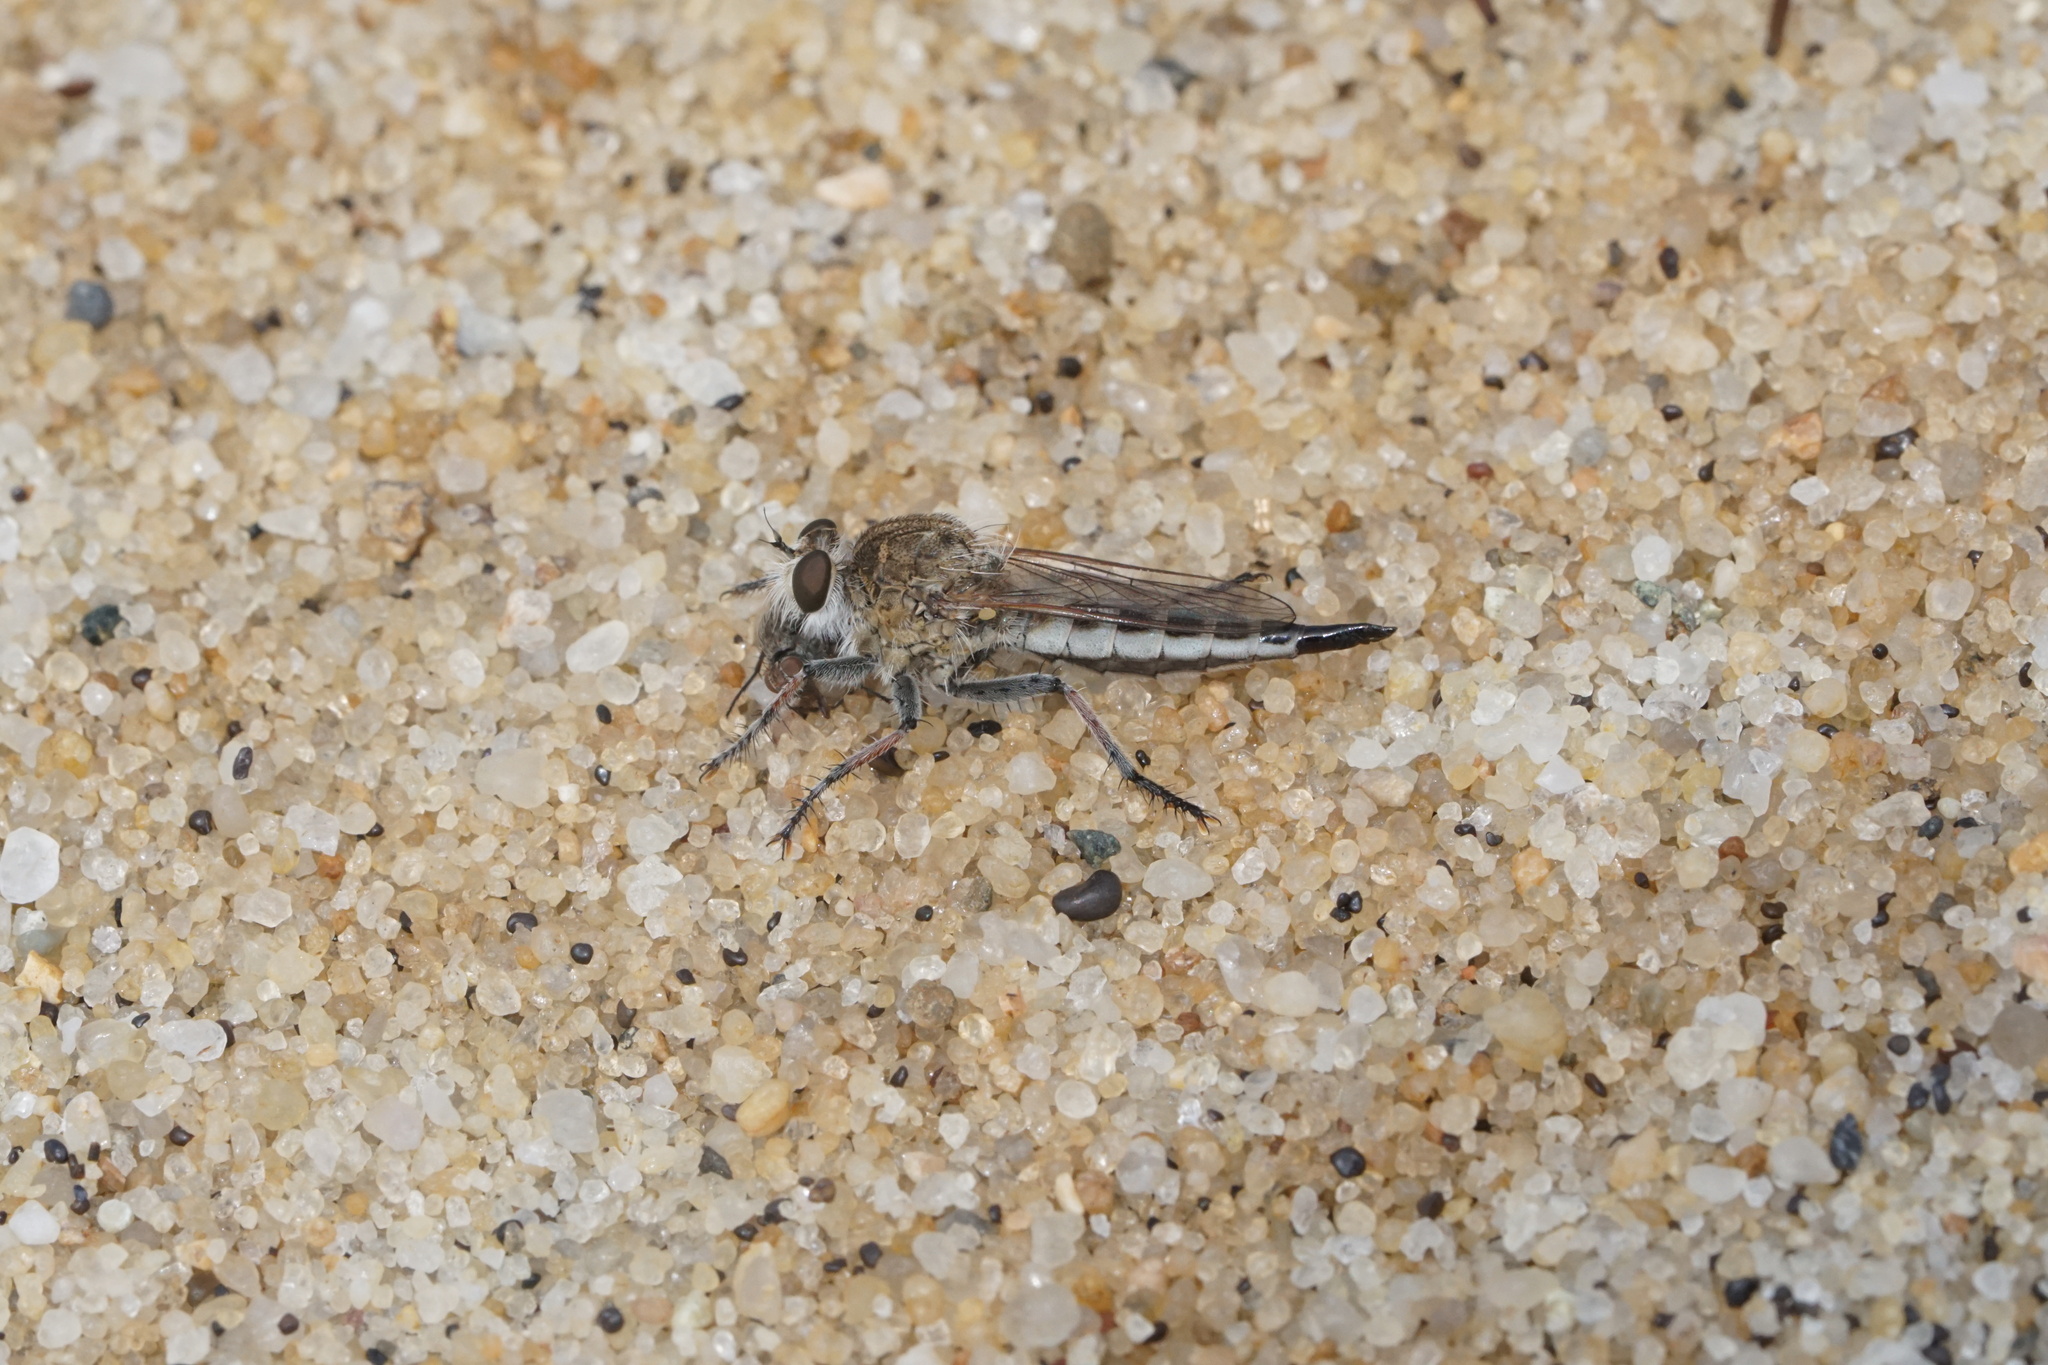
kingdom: Animalia
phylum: Arthropoda
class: Insecta
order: Diptera
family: Asilidae
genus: Efferia
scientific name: Efferia albibarbis
